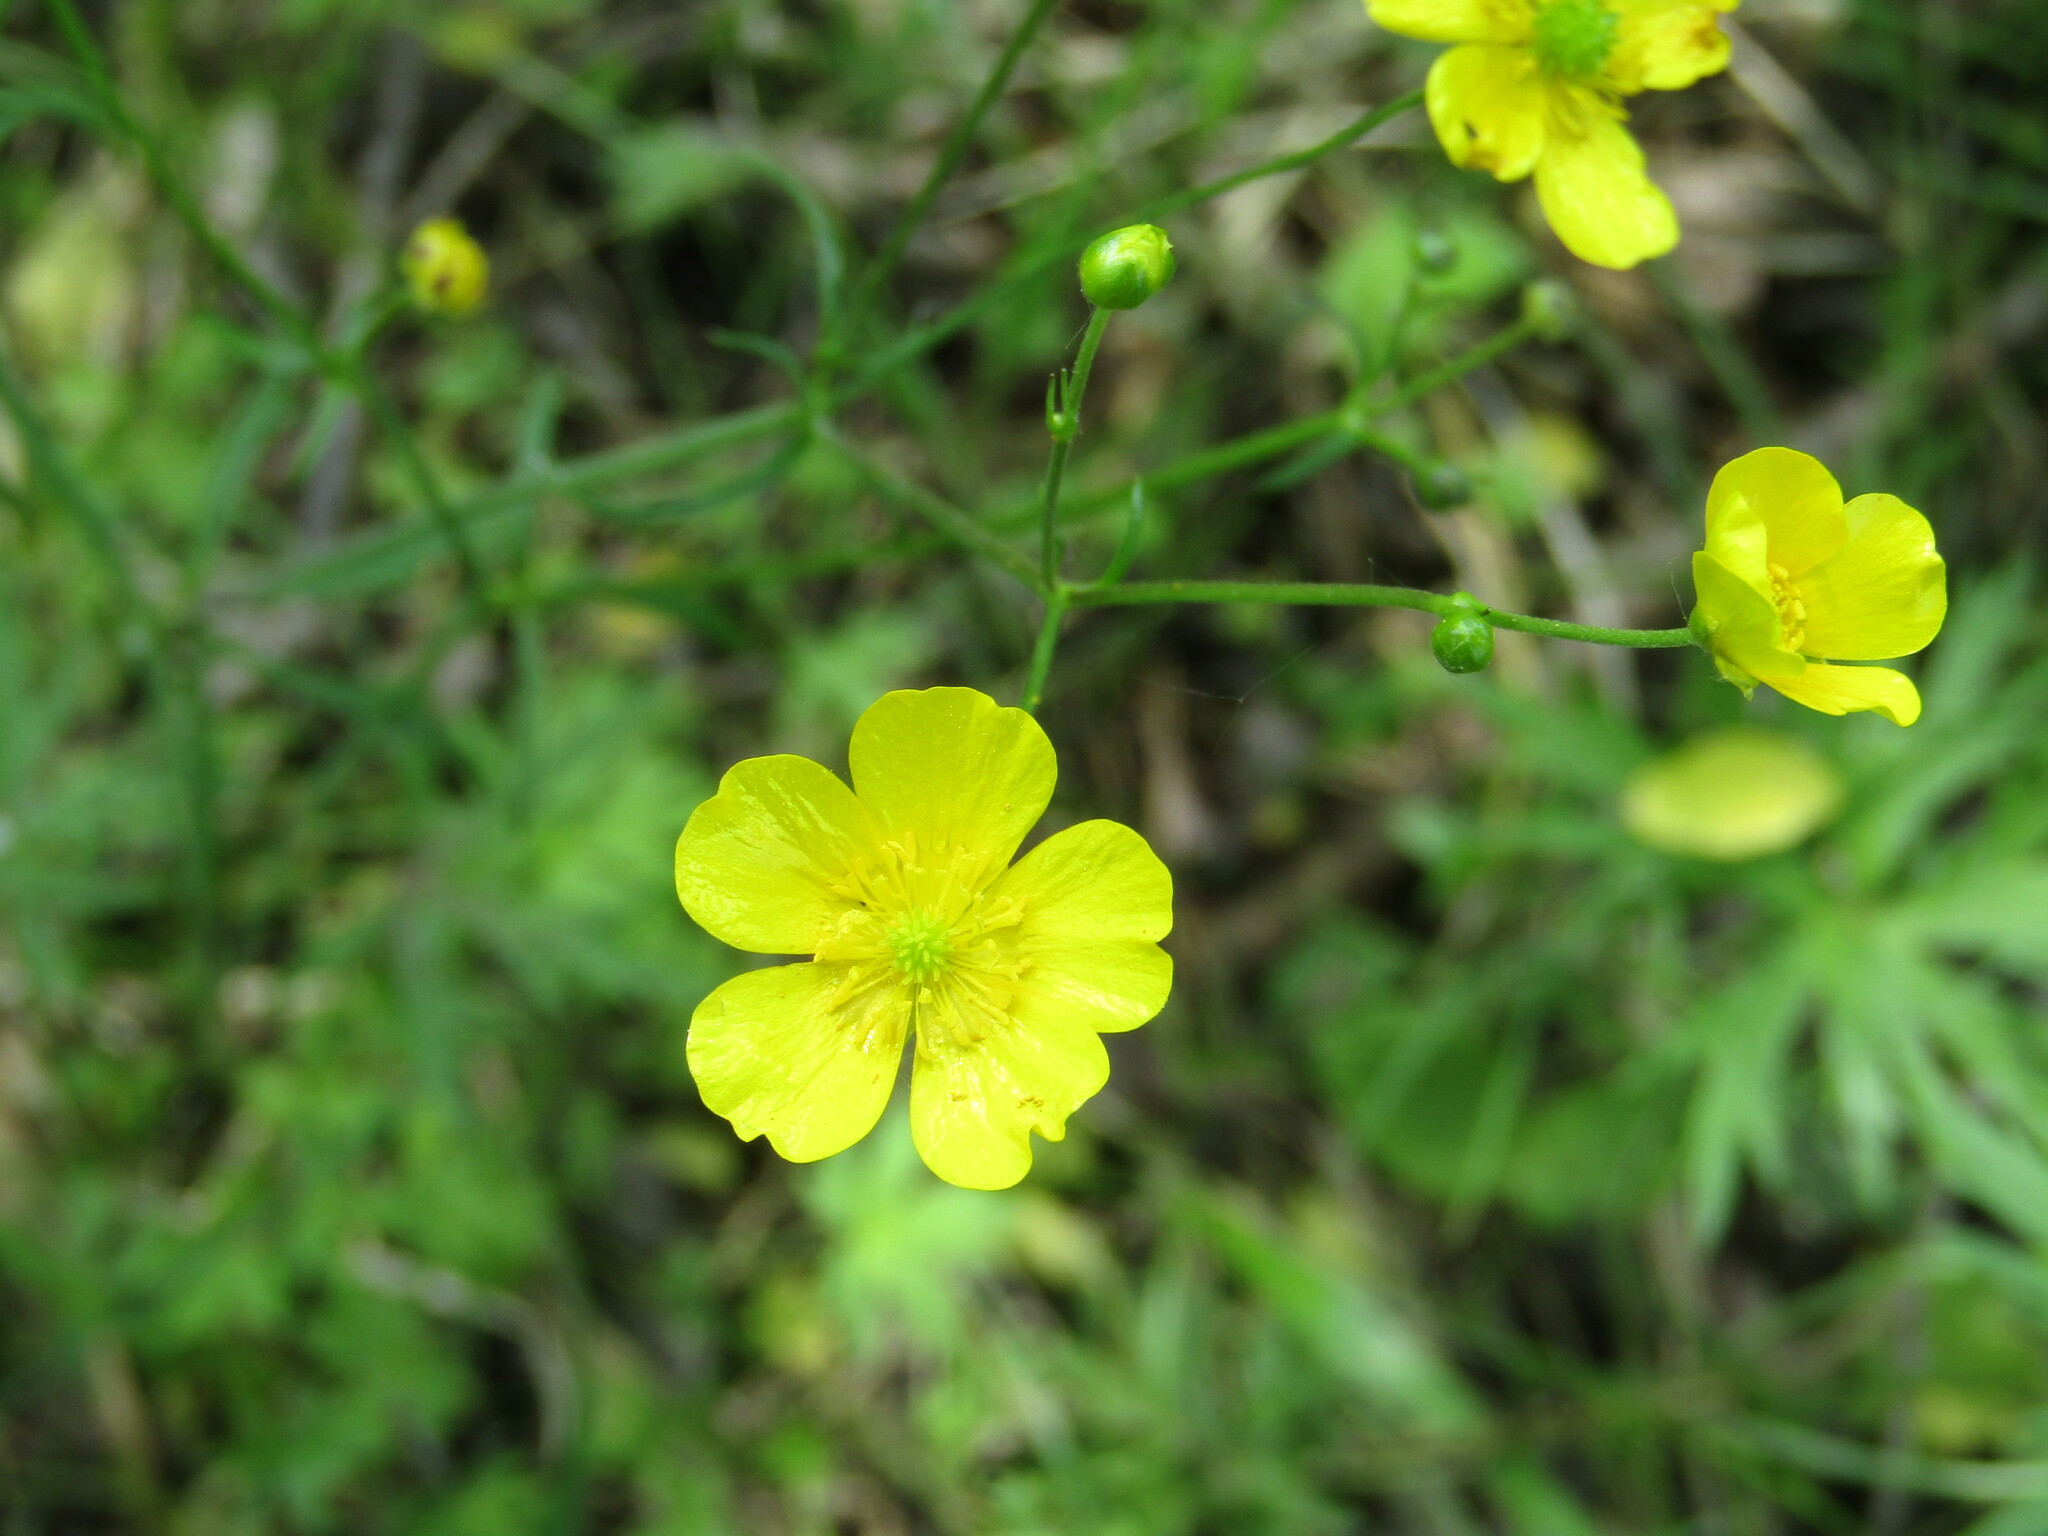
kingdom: Plantae
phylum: Tracheophyta
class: Magnoliopsida
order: Ranunculales
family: Ranunculaceae
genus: Ranunculus
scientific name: Ranunculus acris
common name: Meadow buttercup
